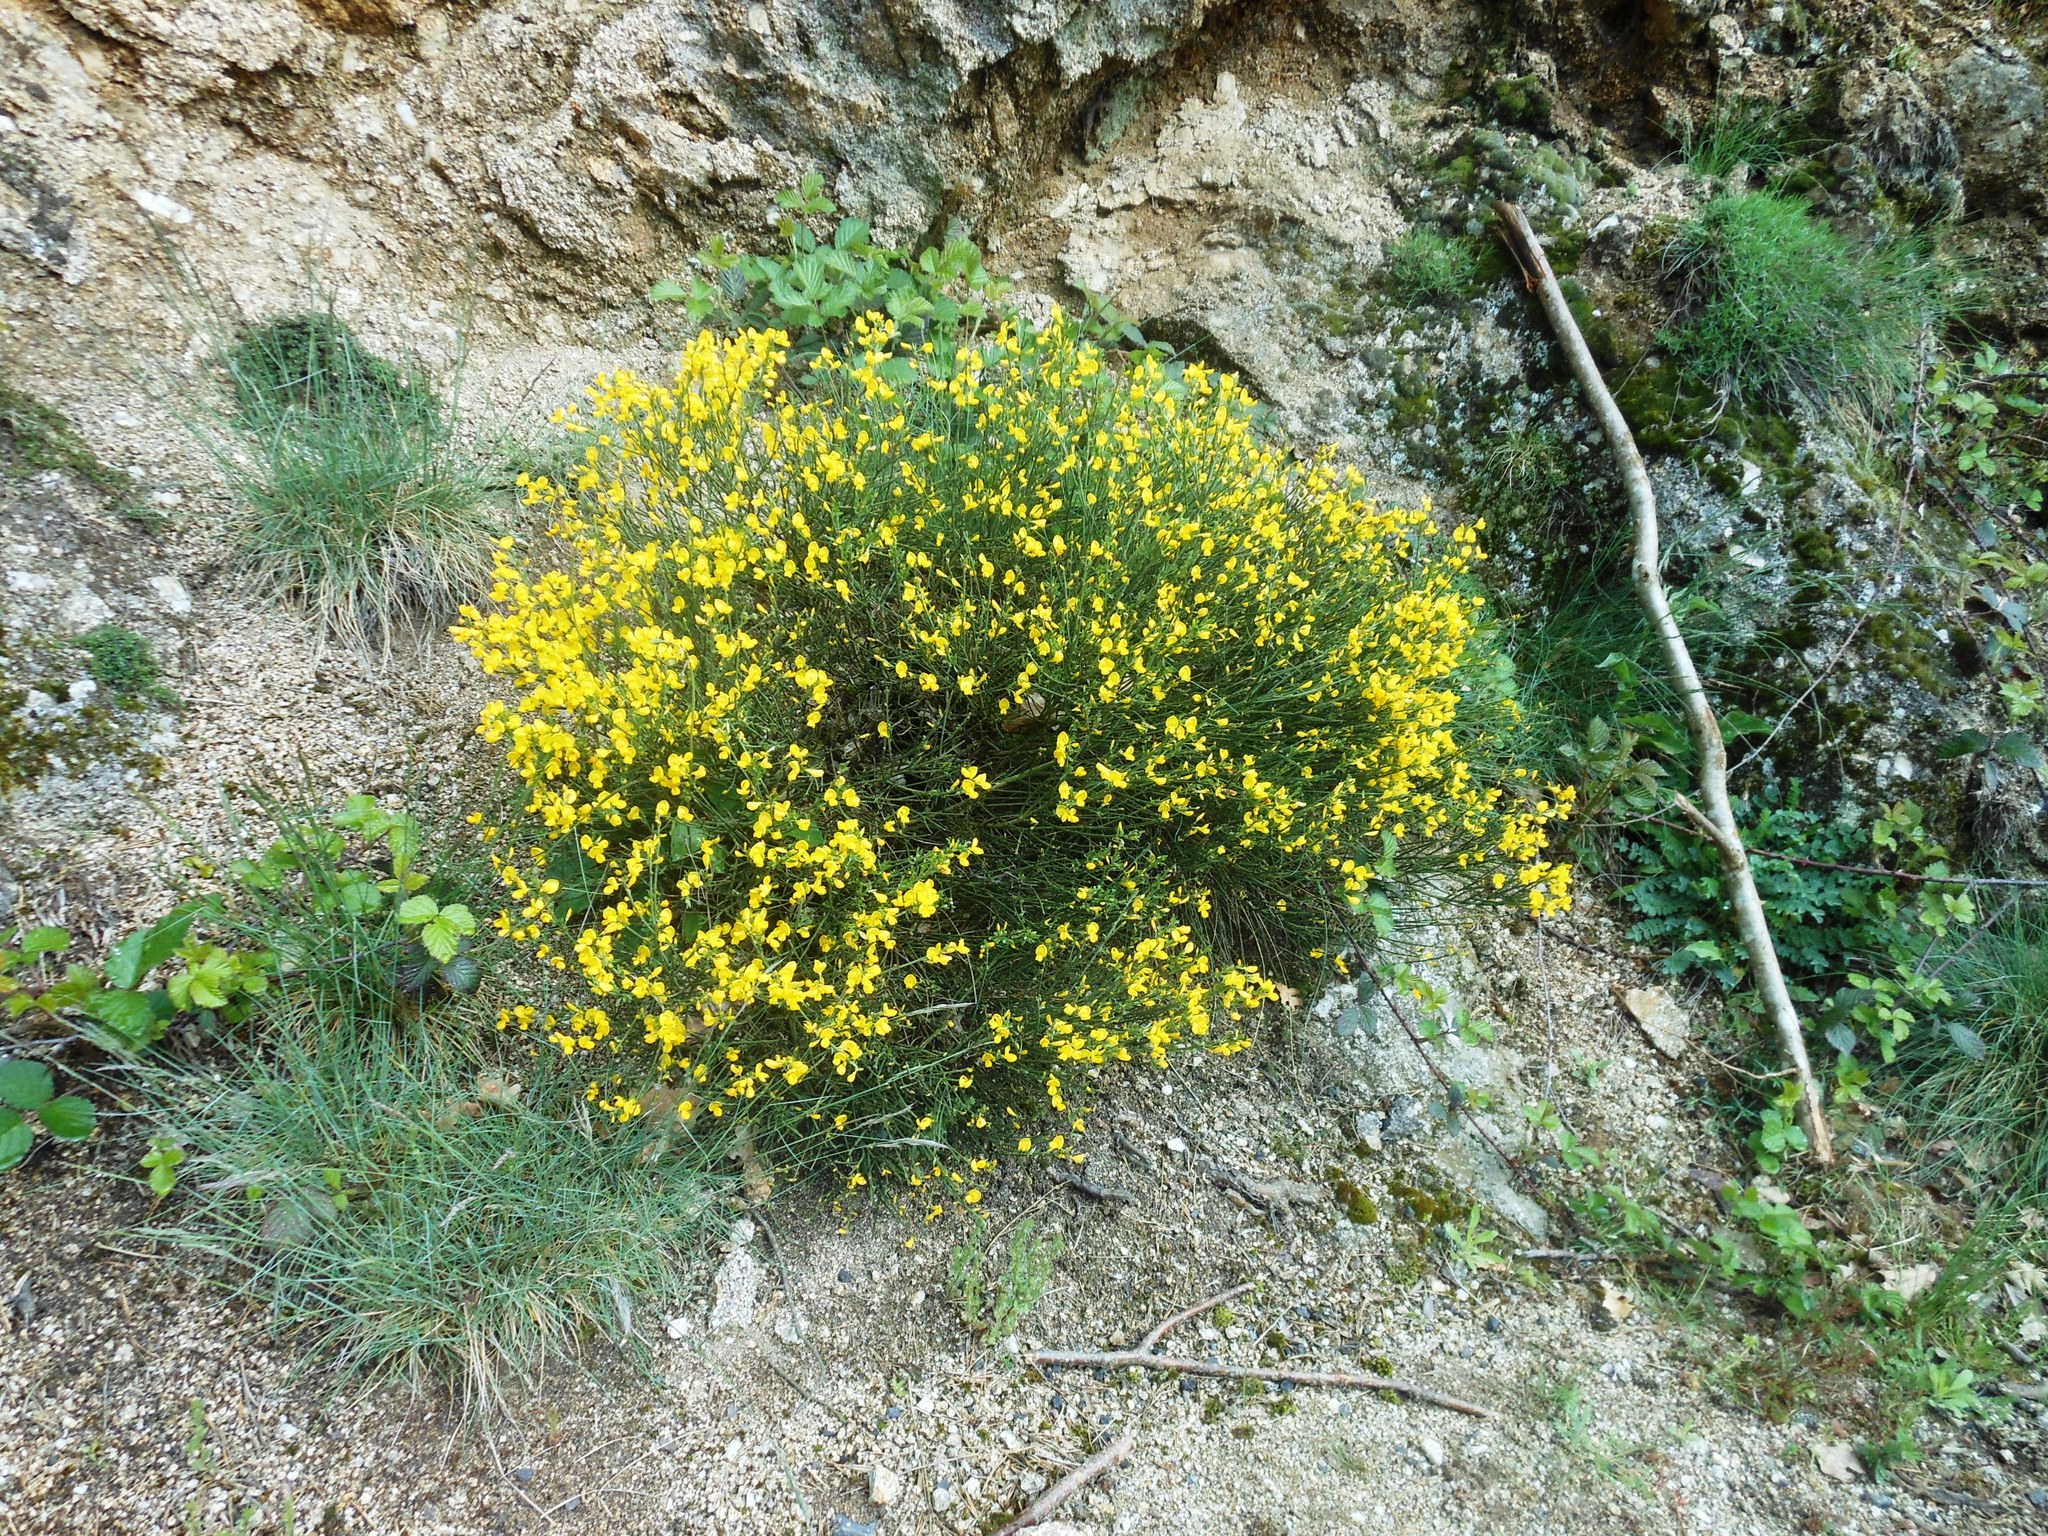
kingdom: Plantae
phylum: Tracheophyta
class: Magnoliopsida
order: Fabales
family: Fabaceae
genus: Cytisus
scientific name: Cytisus scoparius
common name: Scotch broom
